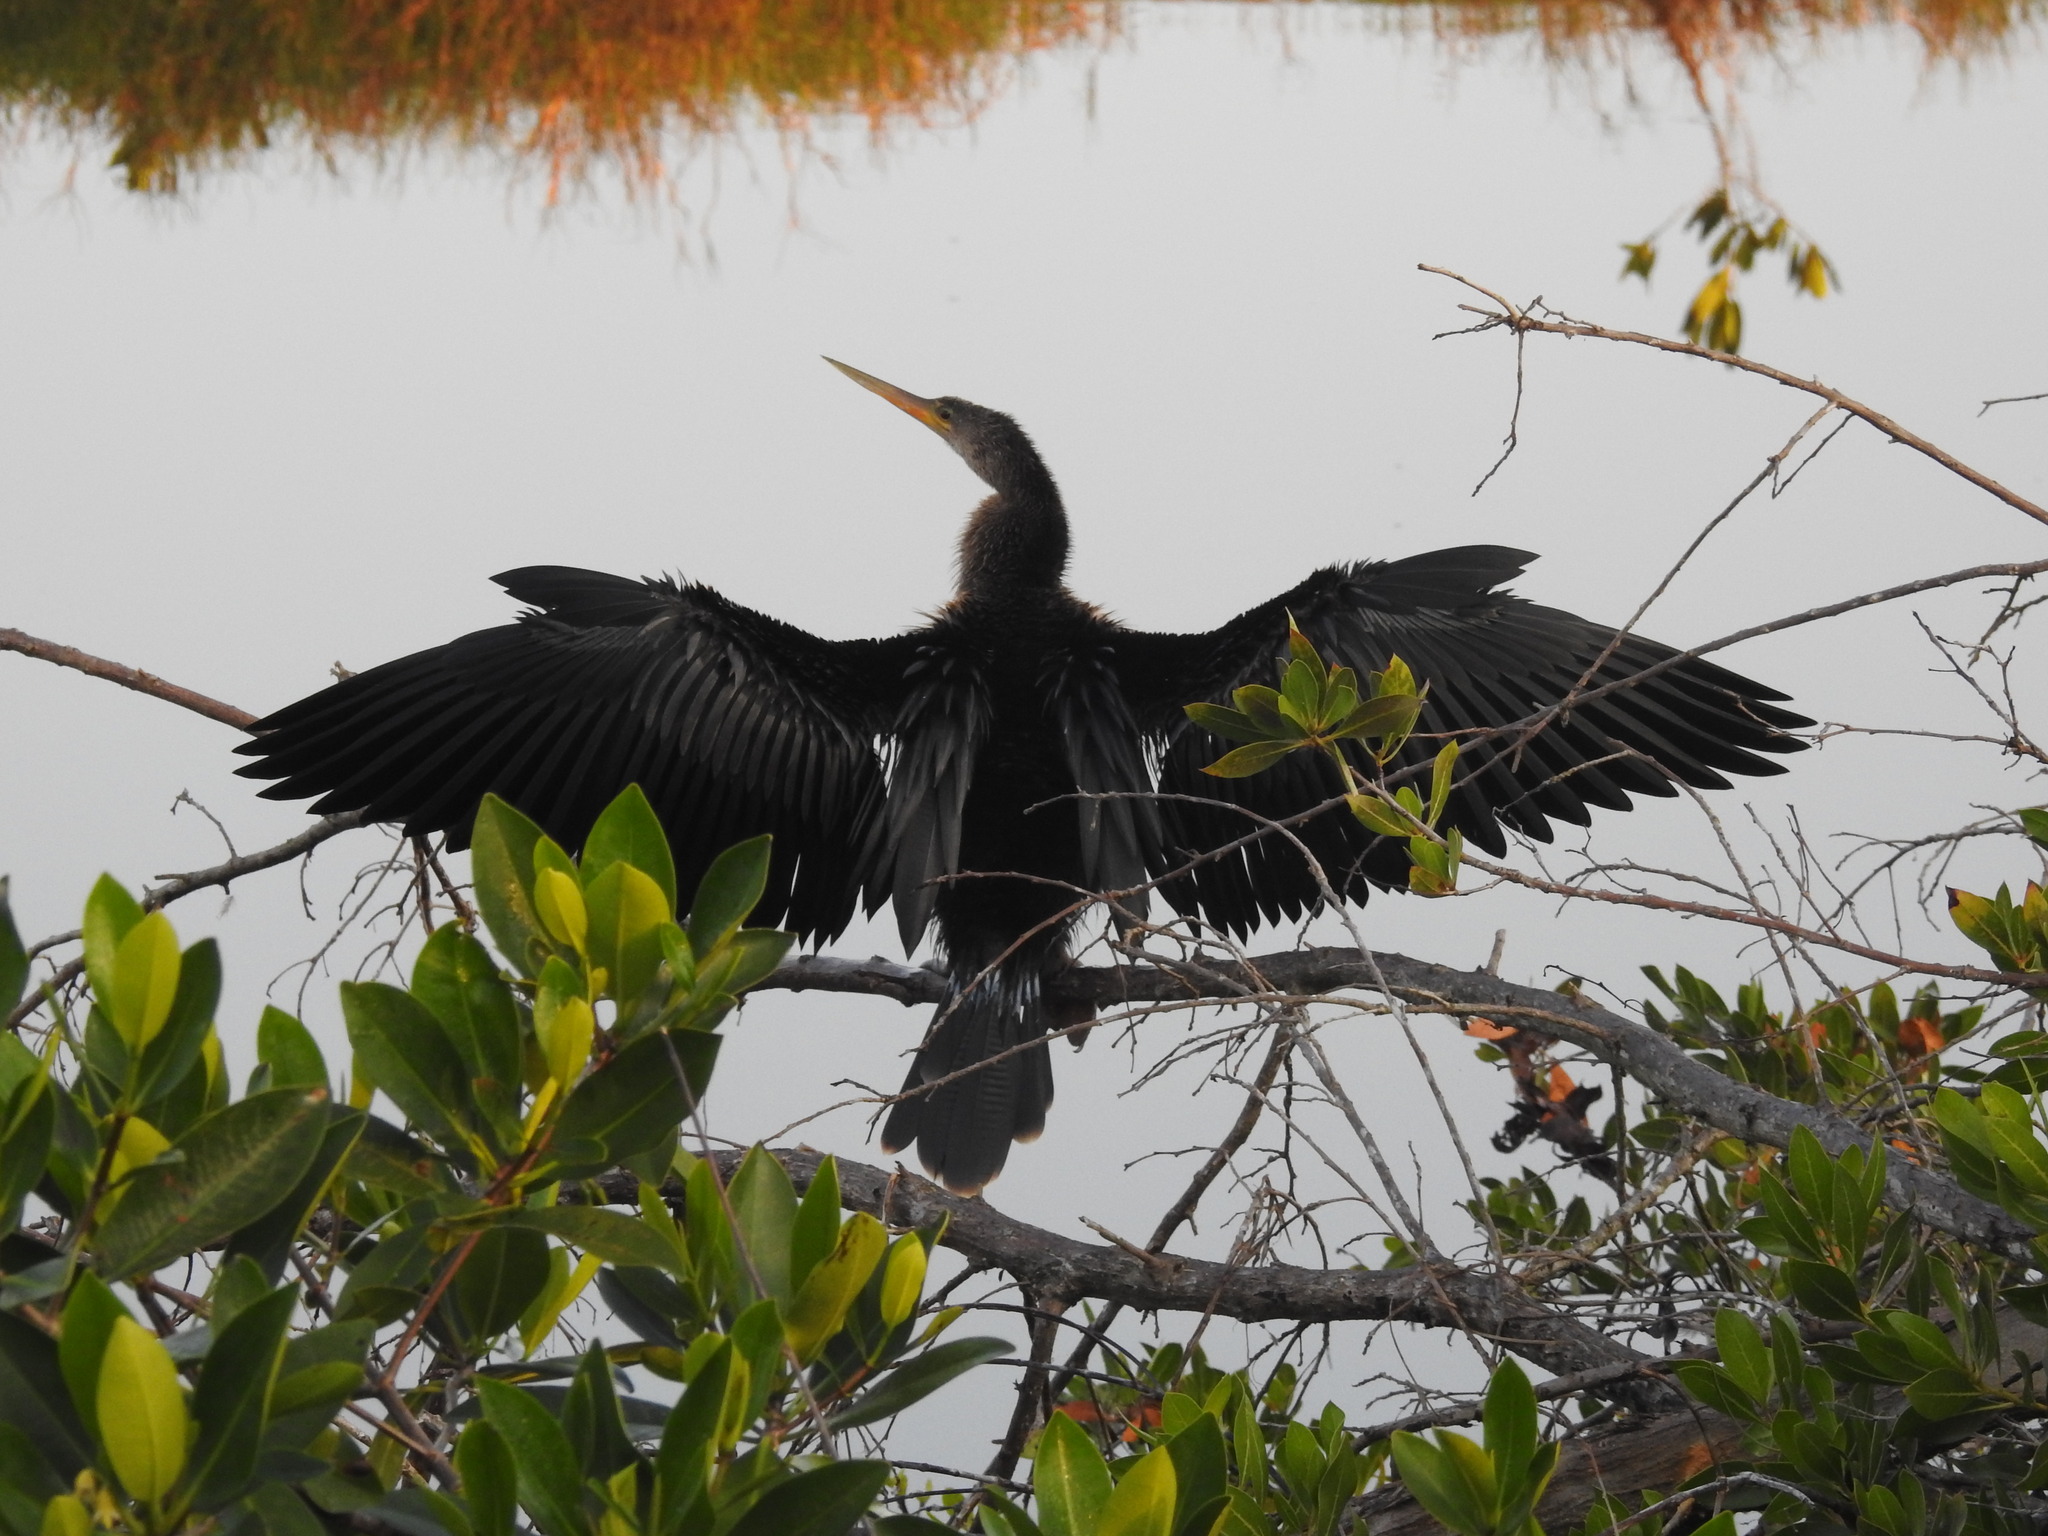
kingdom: Animalia
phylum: Chordata
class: Aves
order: Suliformes
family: Anhingidae
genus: Anhinga
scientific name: Anhinga anhinga
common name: Anhinga
